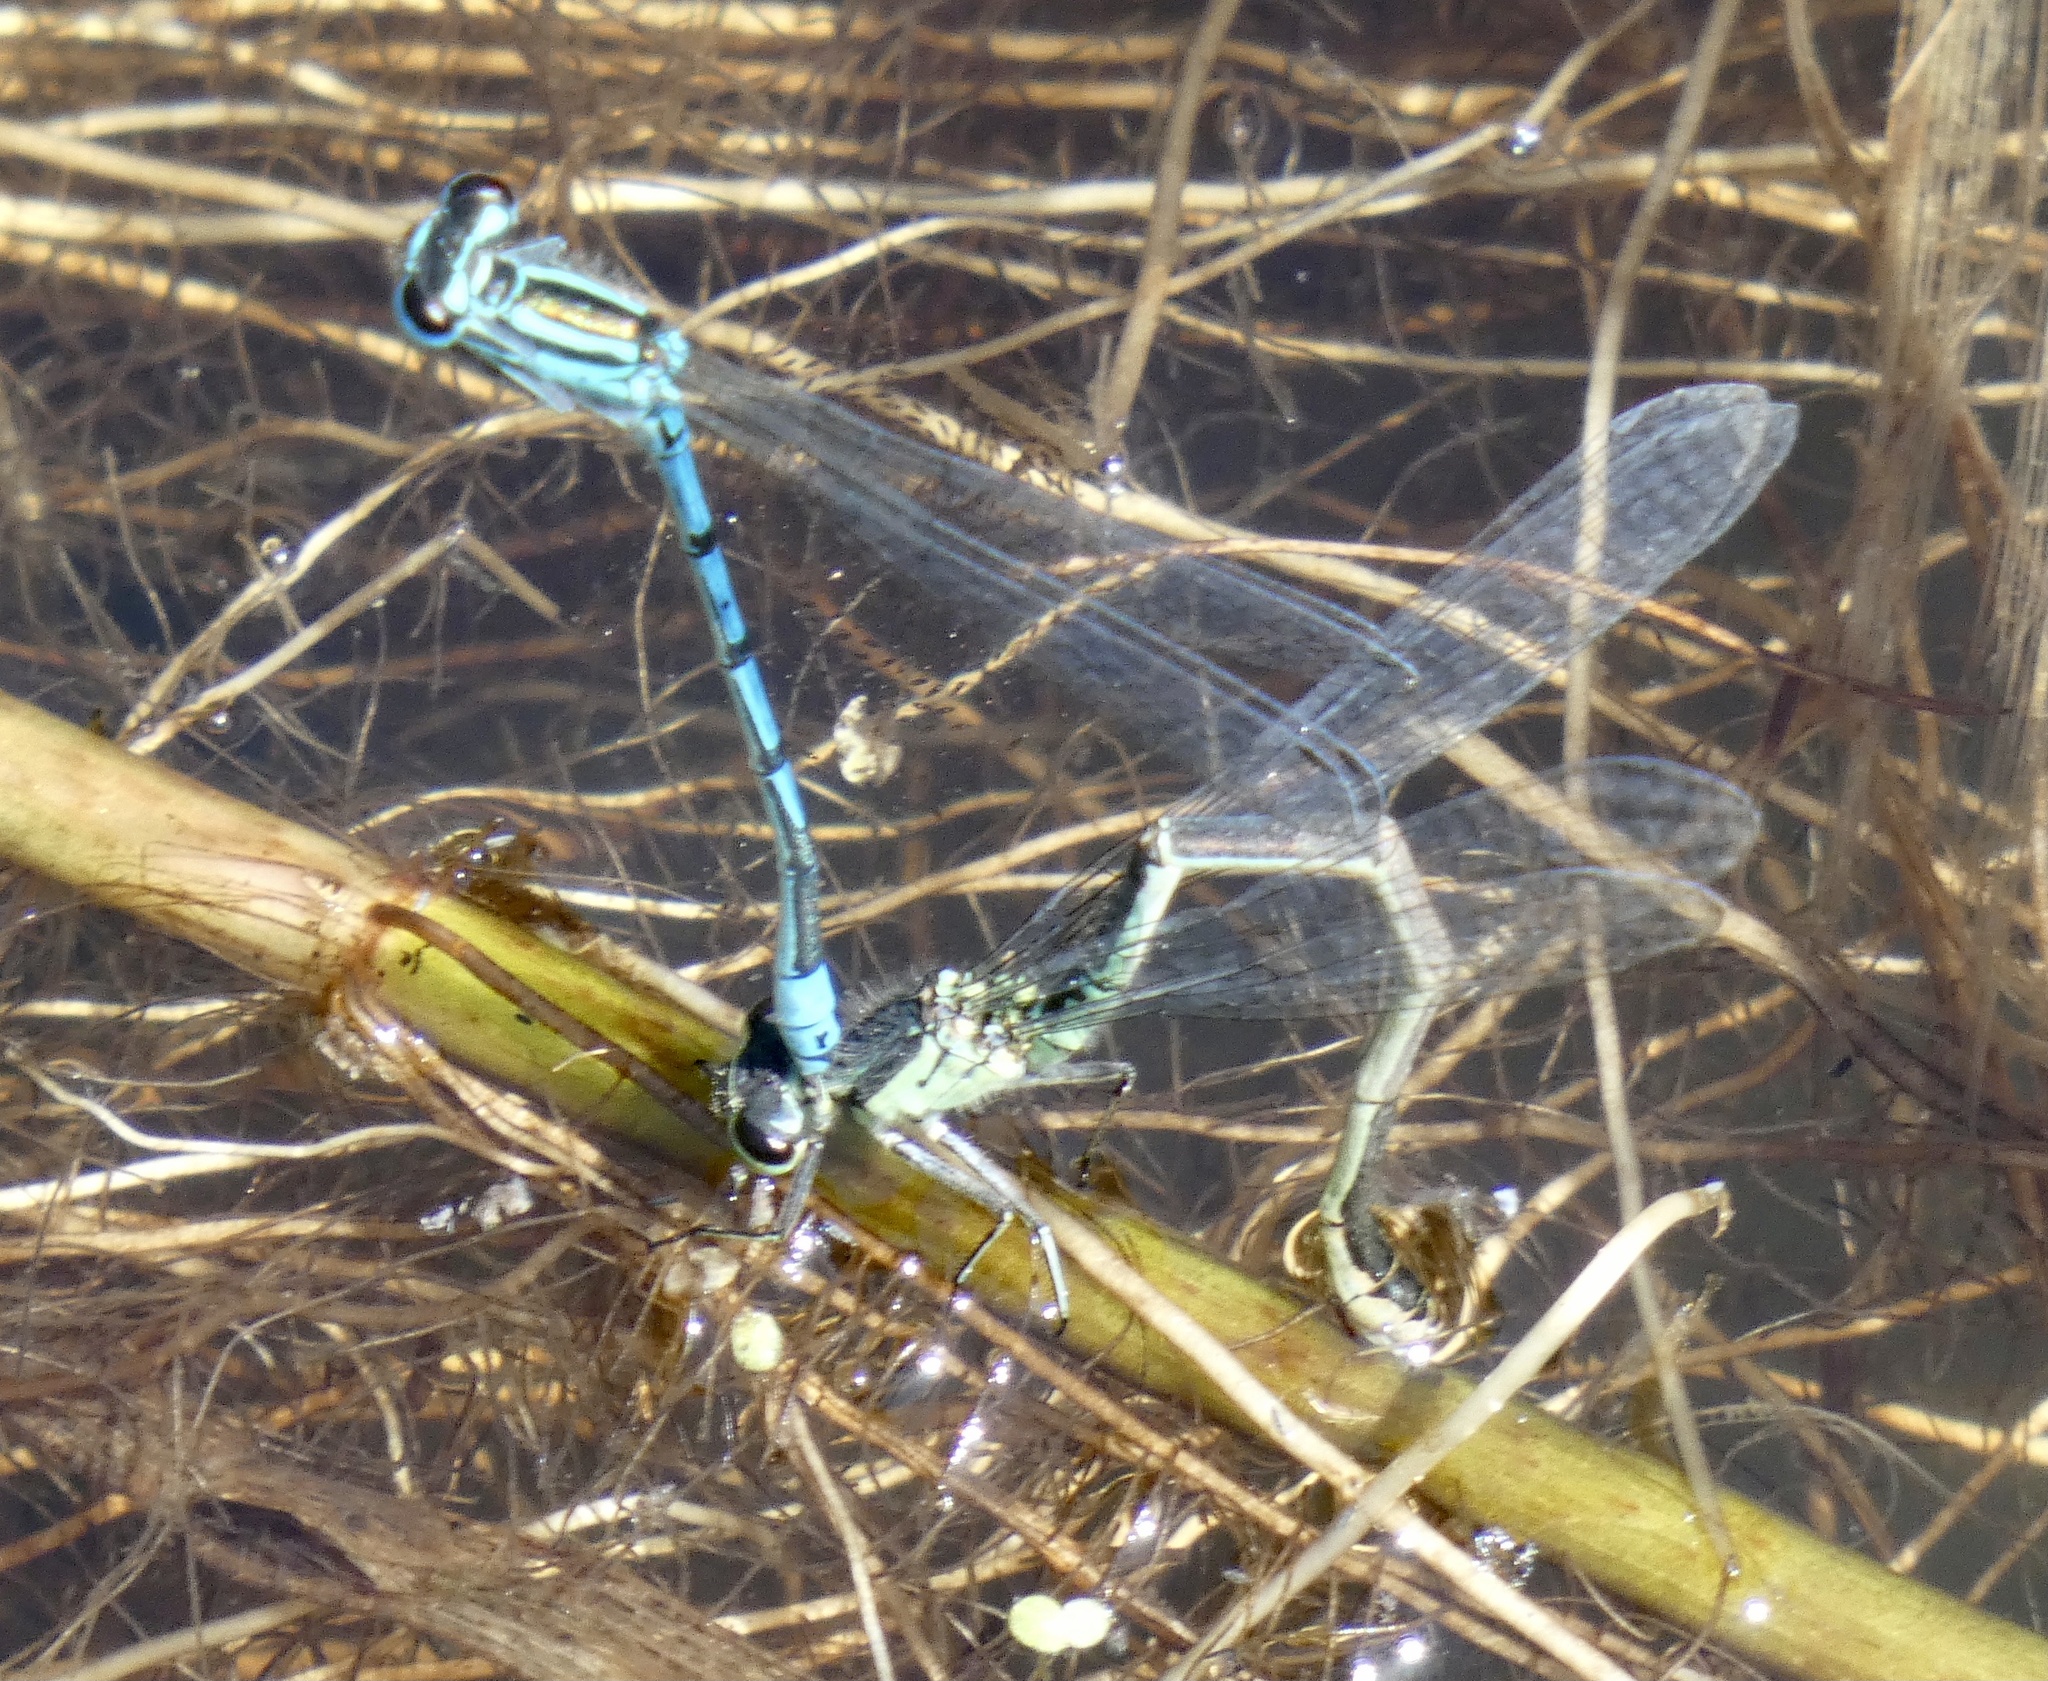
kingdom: Animalia
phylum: Arthropoda
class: Insecta
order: Odonata
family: Coenagrionidae
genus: Coenagrion
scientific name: Coenagrion puella
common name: Azure damselfly
